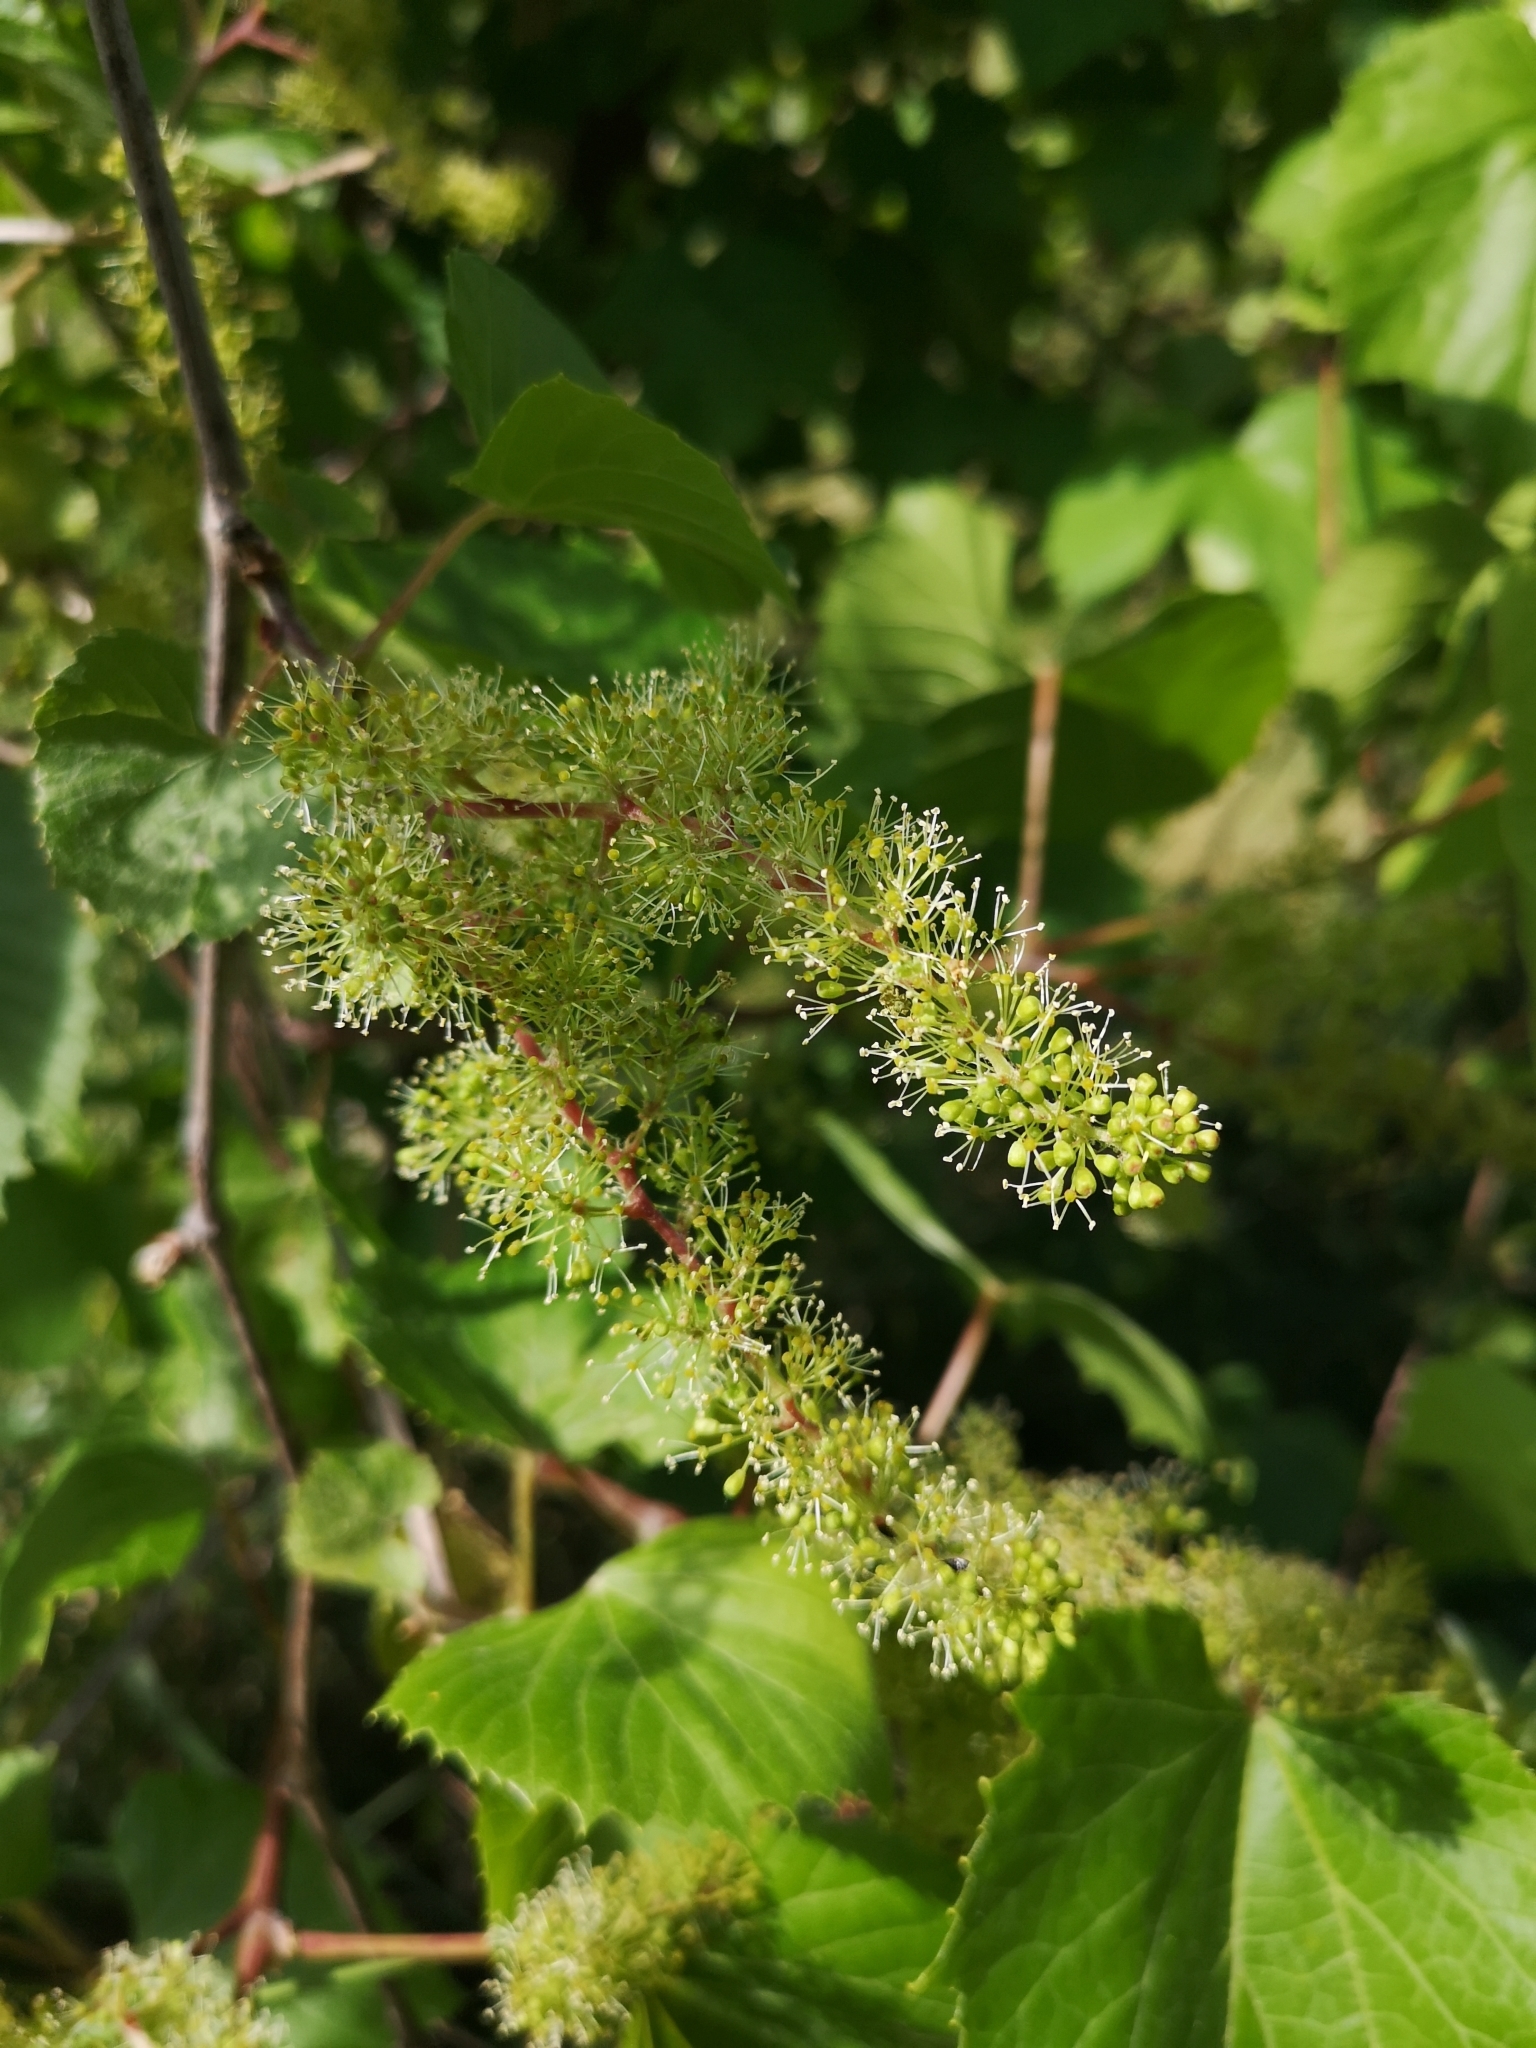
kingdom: Plantae
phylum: Tracheophyta
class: Magnoliopsida
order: Vitales
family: Vitaceae
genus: Vitis
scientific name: Vitis vinifera
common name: Grape-vine
